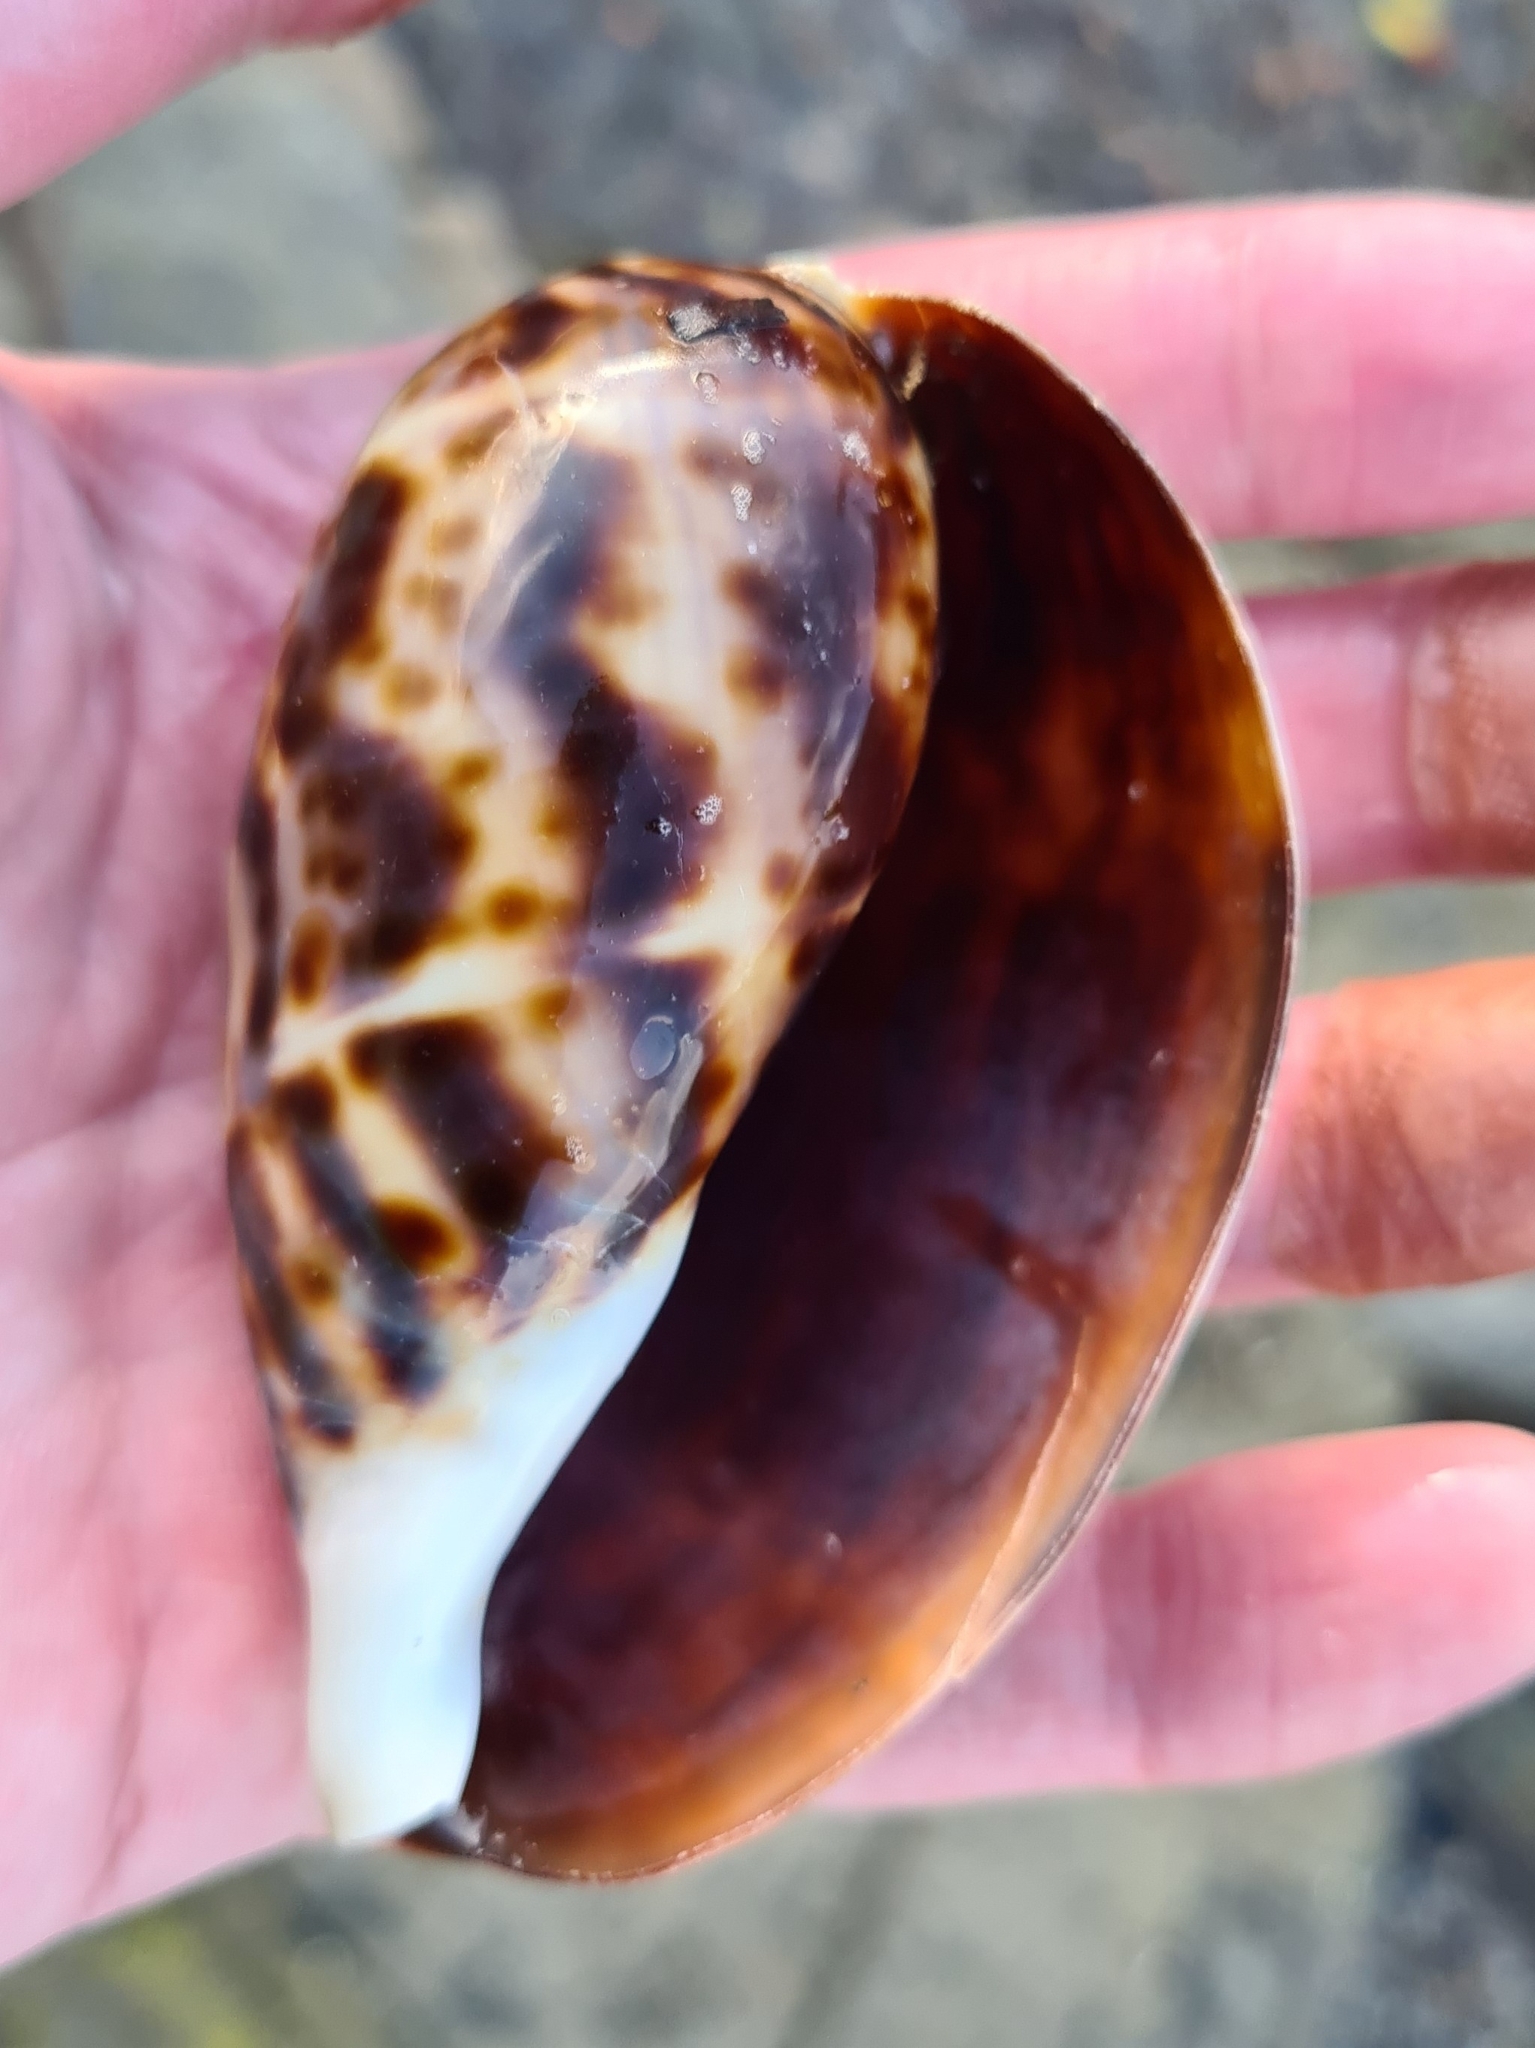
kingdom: Animalia
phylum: Mollusca
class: Gastropoda
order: Littorinimorpha
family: Cypraeidae
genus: Cypraea
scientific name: Cypraea tigris
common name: Tiger cowrie
